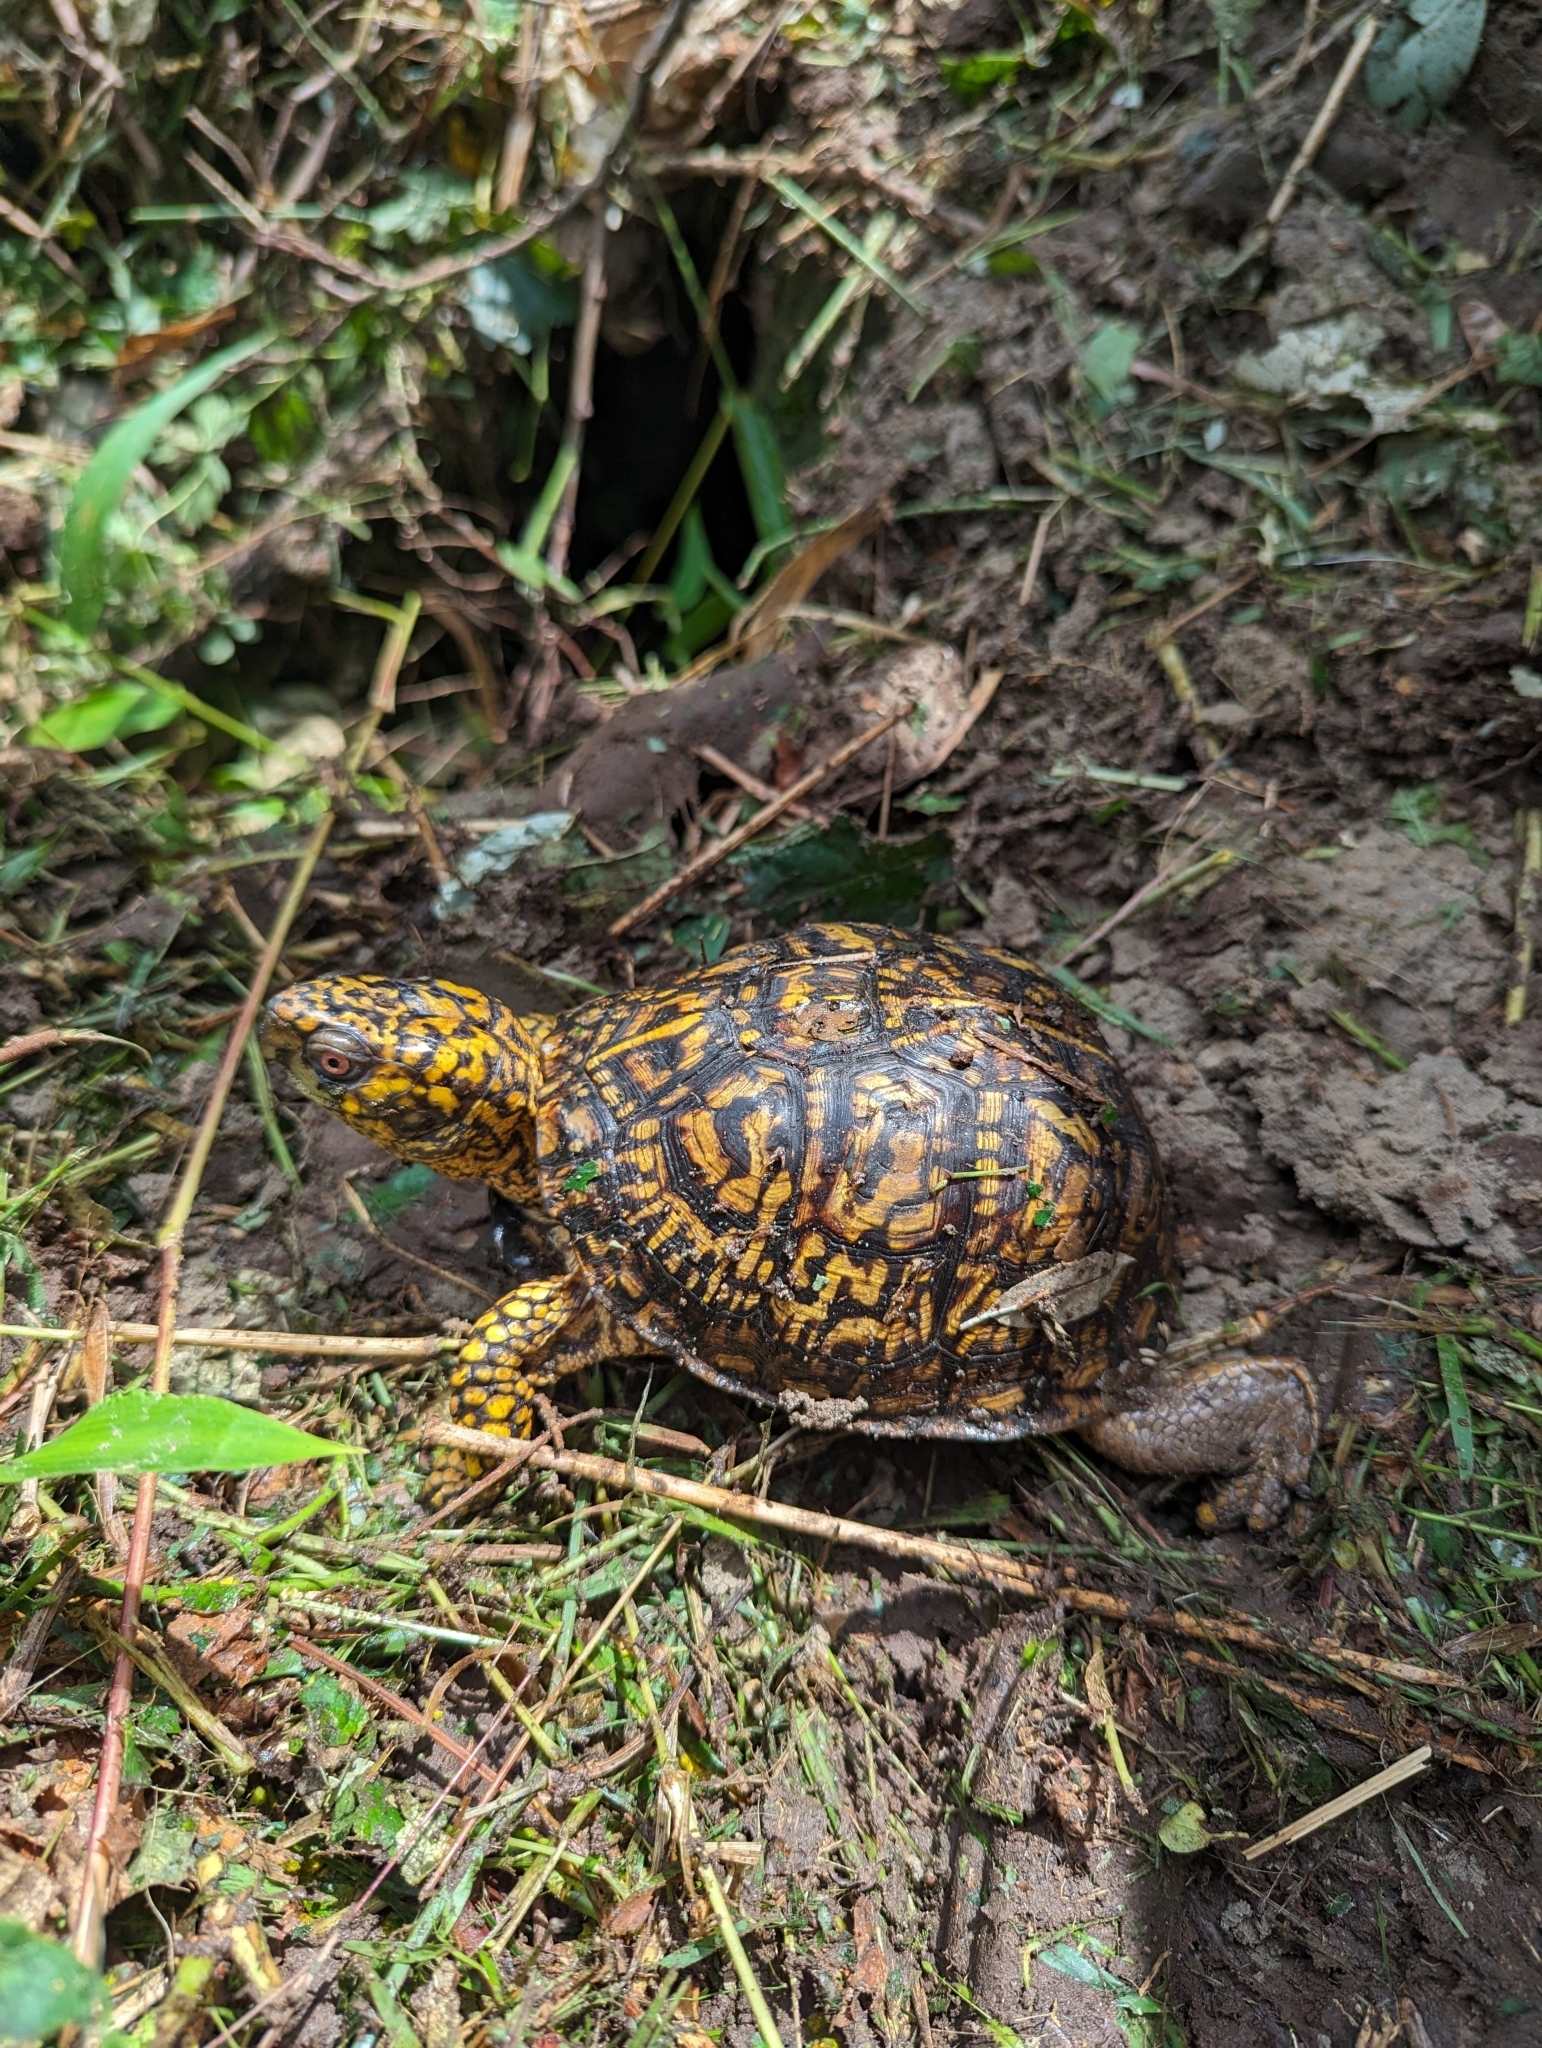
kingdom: Animalia
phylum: Chordata
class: Testudines
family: Emydidae
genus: Terrapene
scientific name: Terrapene carolina
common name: Common box turtle
